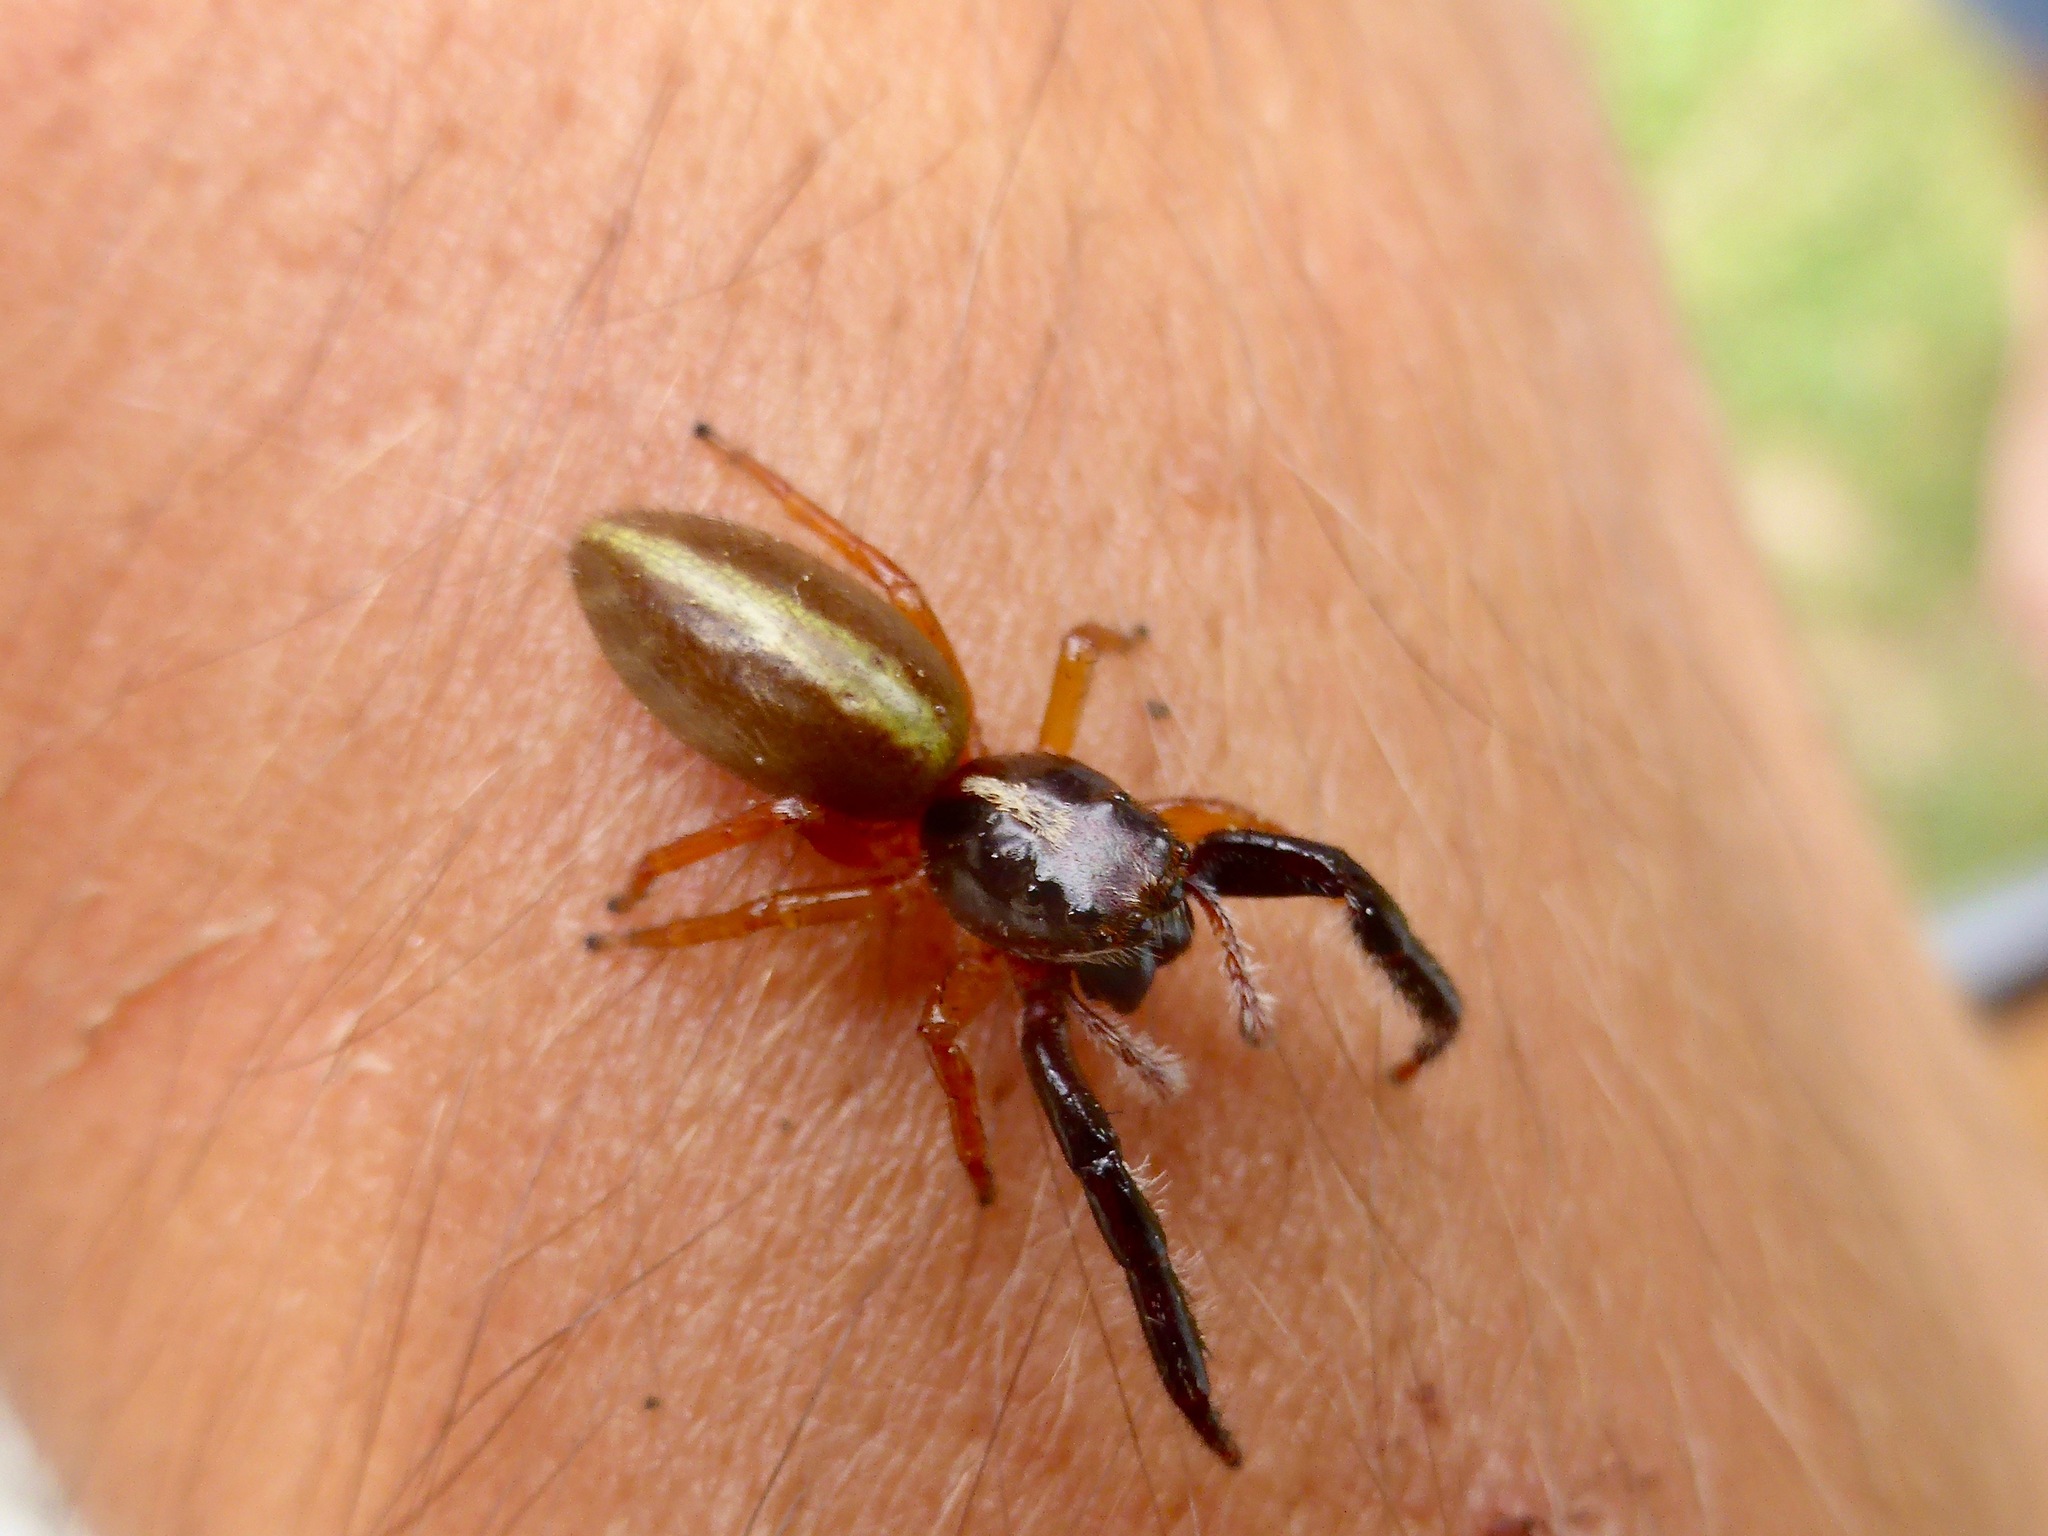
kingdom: Animalia
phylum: Arthropoda
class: Arachnida
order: Araneae
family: Salticidae
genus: Trite
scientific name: Trite planiceps
